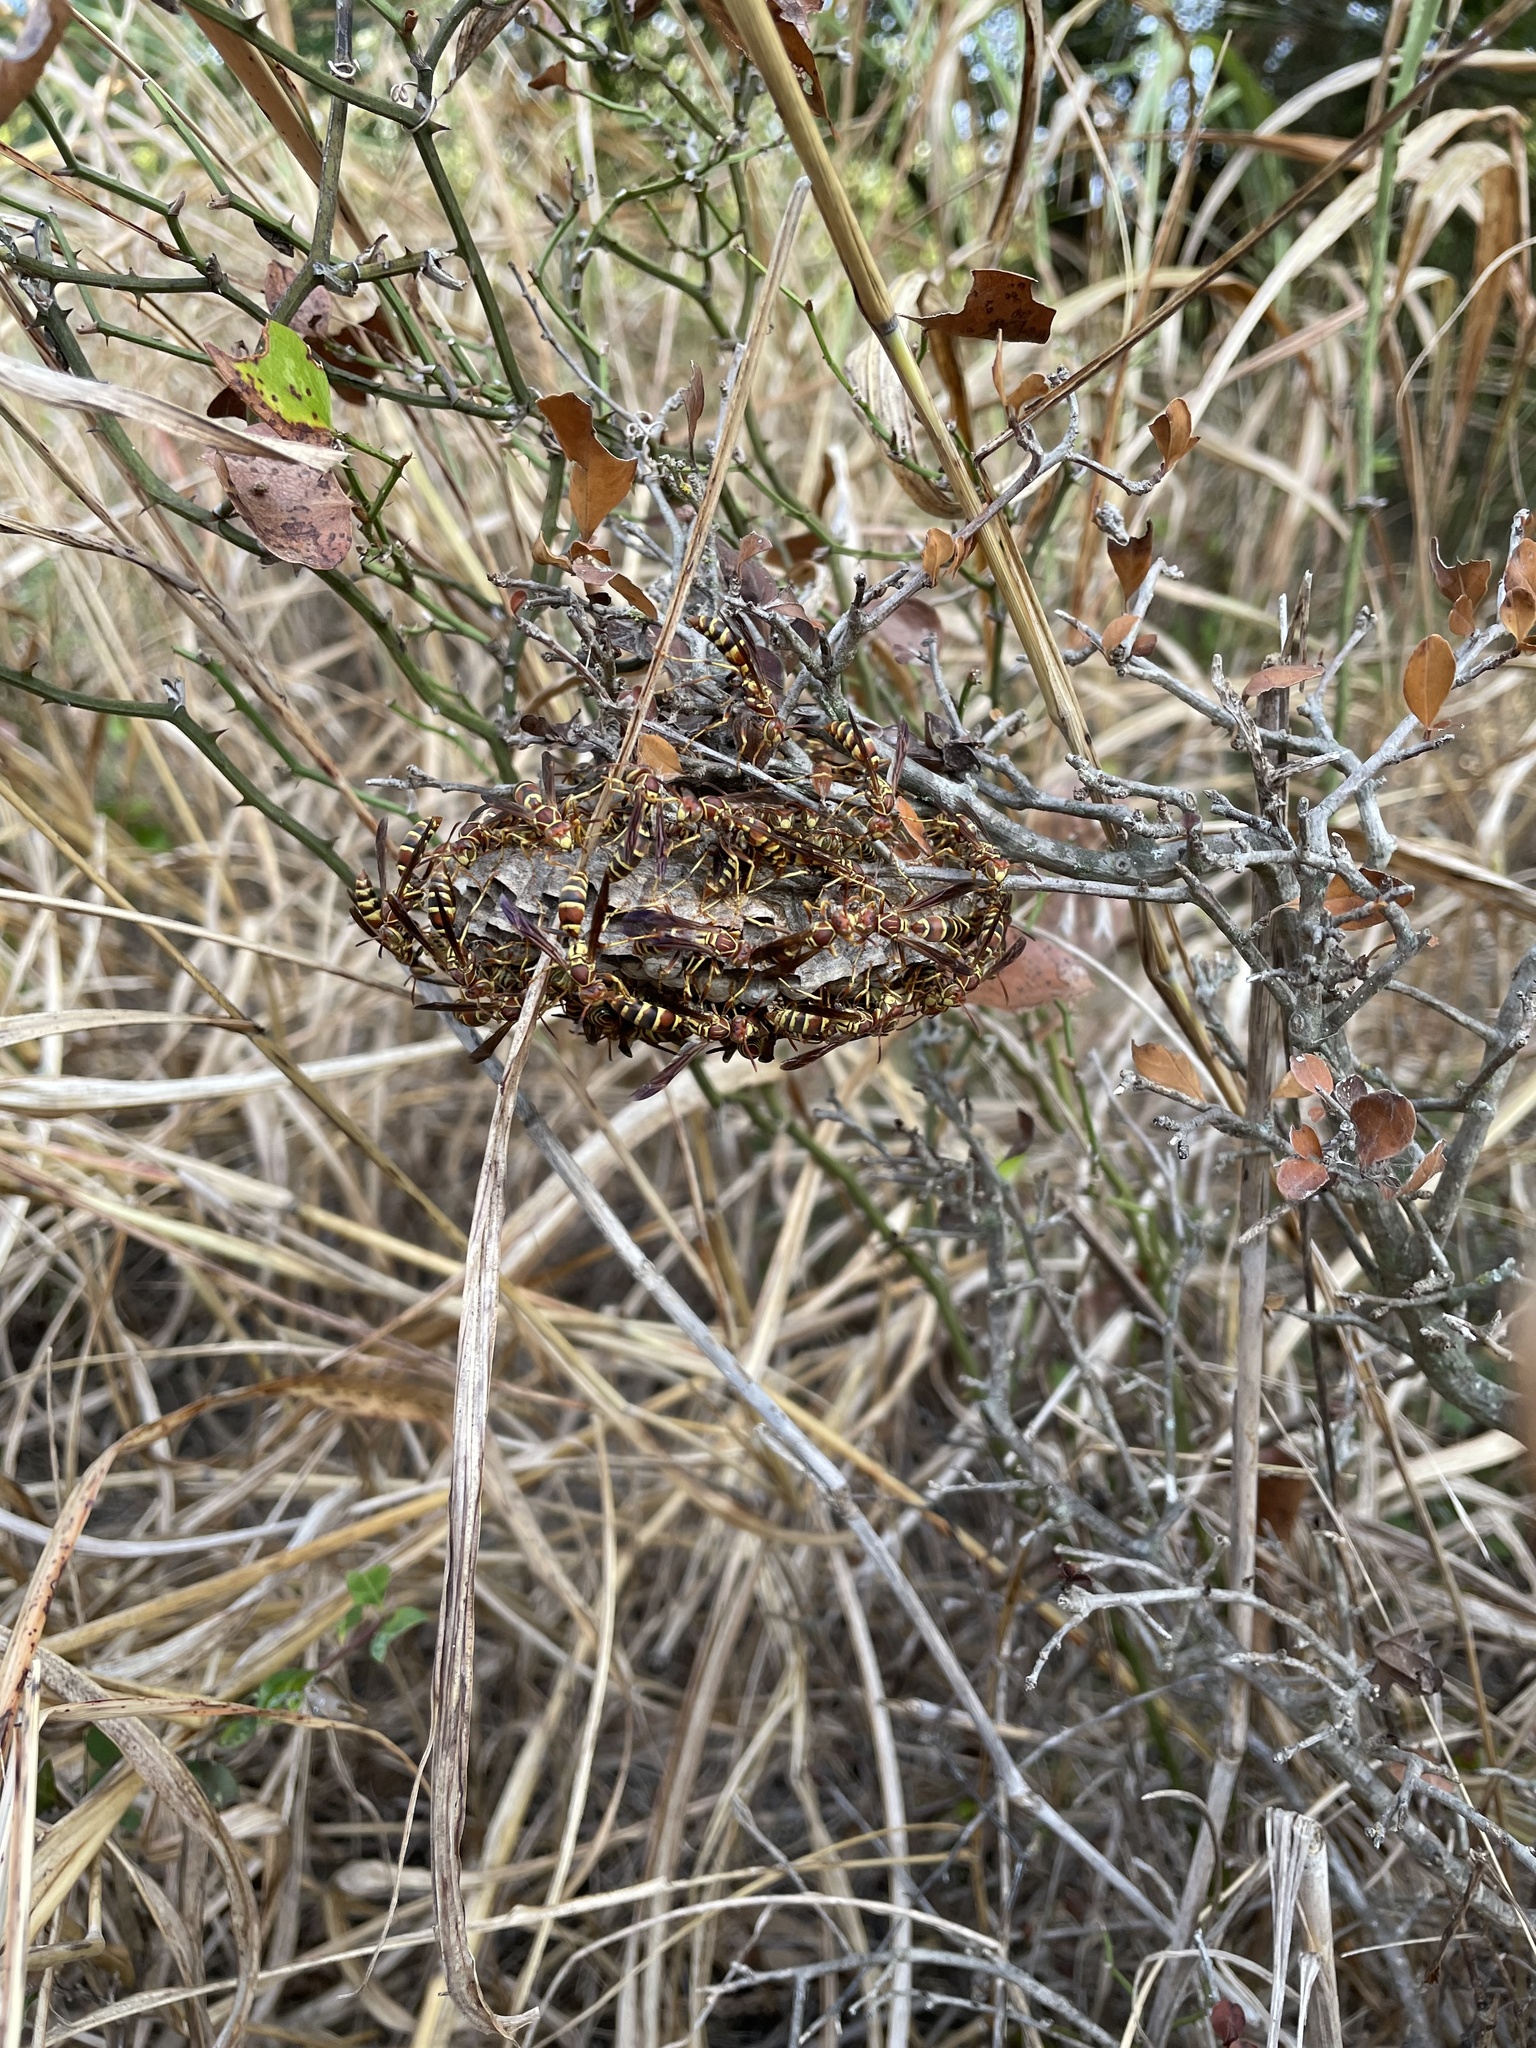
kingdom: Animalia
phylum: Arthropoda
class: Insecta
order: Hymenoptera
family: Eumenidae
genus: Polistes
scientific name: Polistes dorsalis
